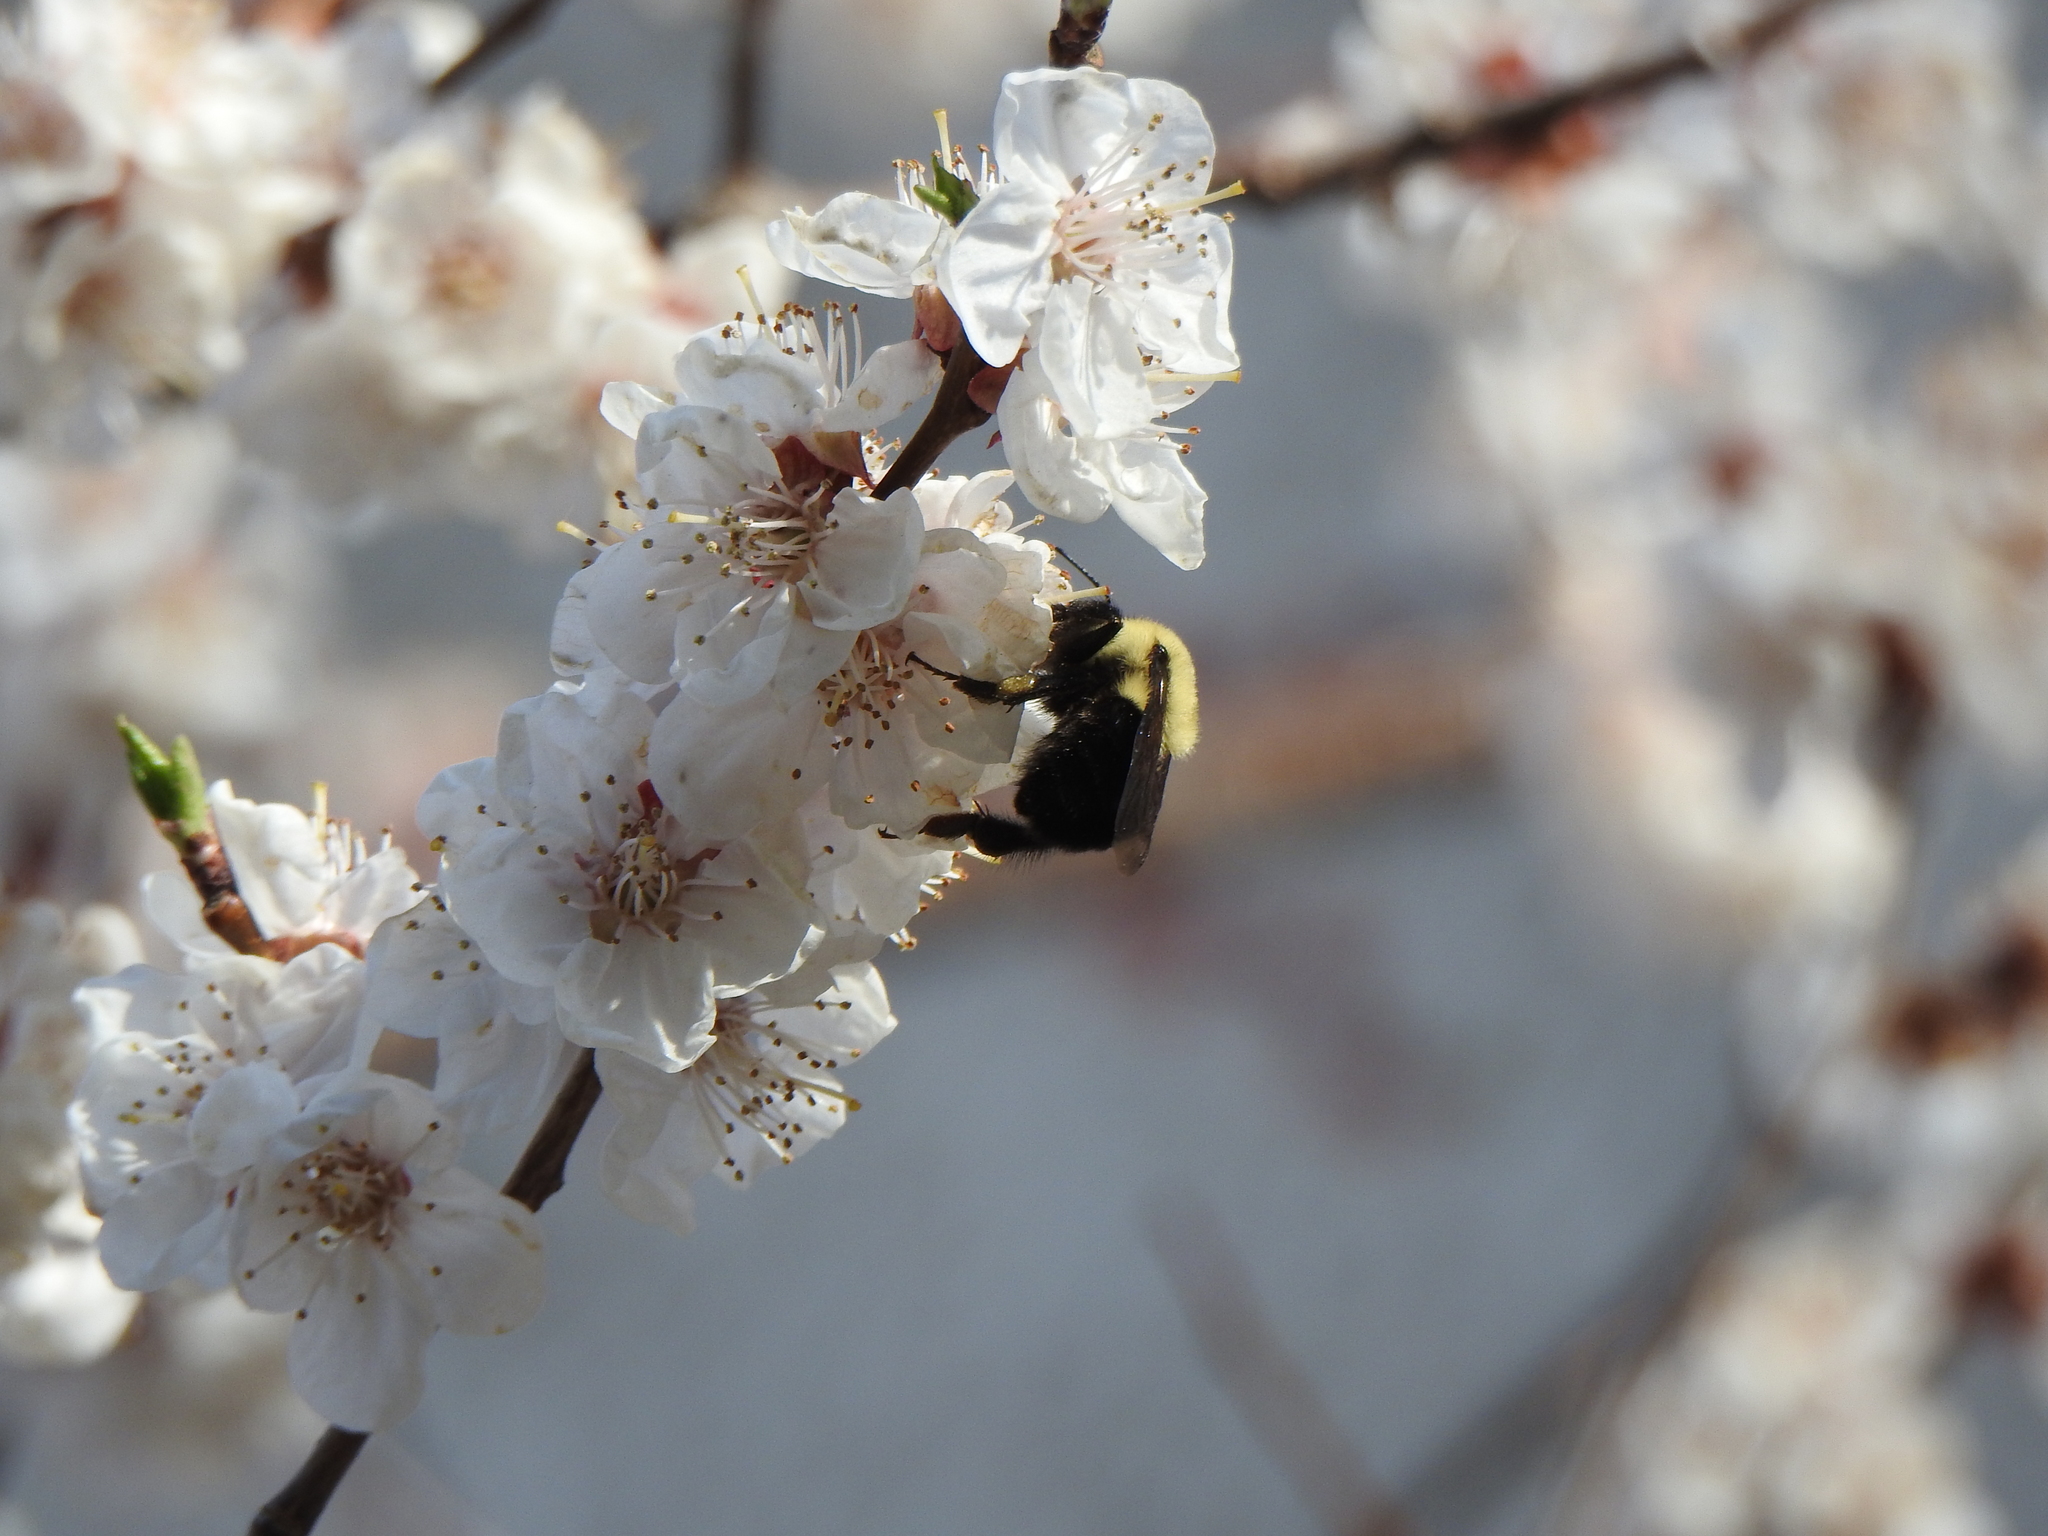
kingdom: Animalia
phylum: Arthropoda
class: Insecta
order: Hymenoptera
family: Apidae
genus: Bombus
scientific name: Bombus bimaculatus
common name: Two-spotted bumble bee
